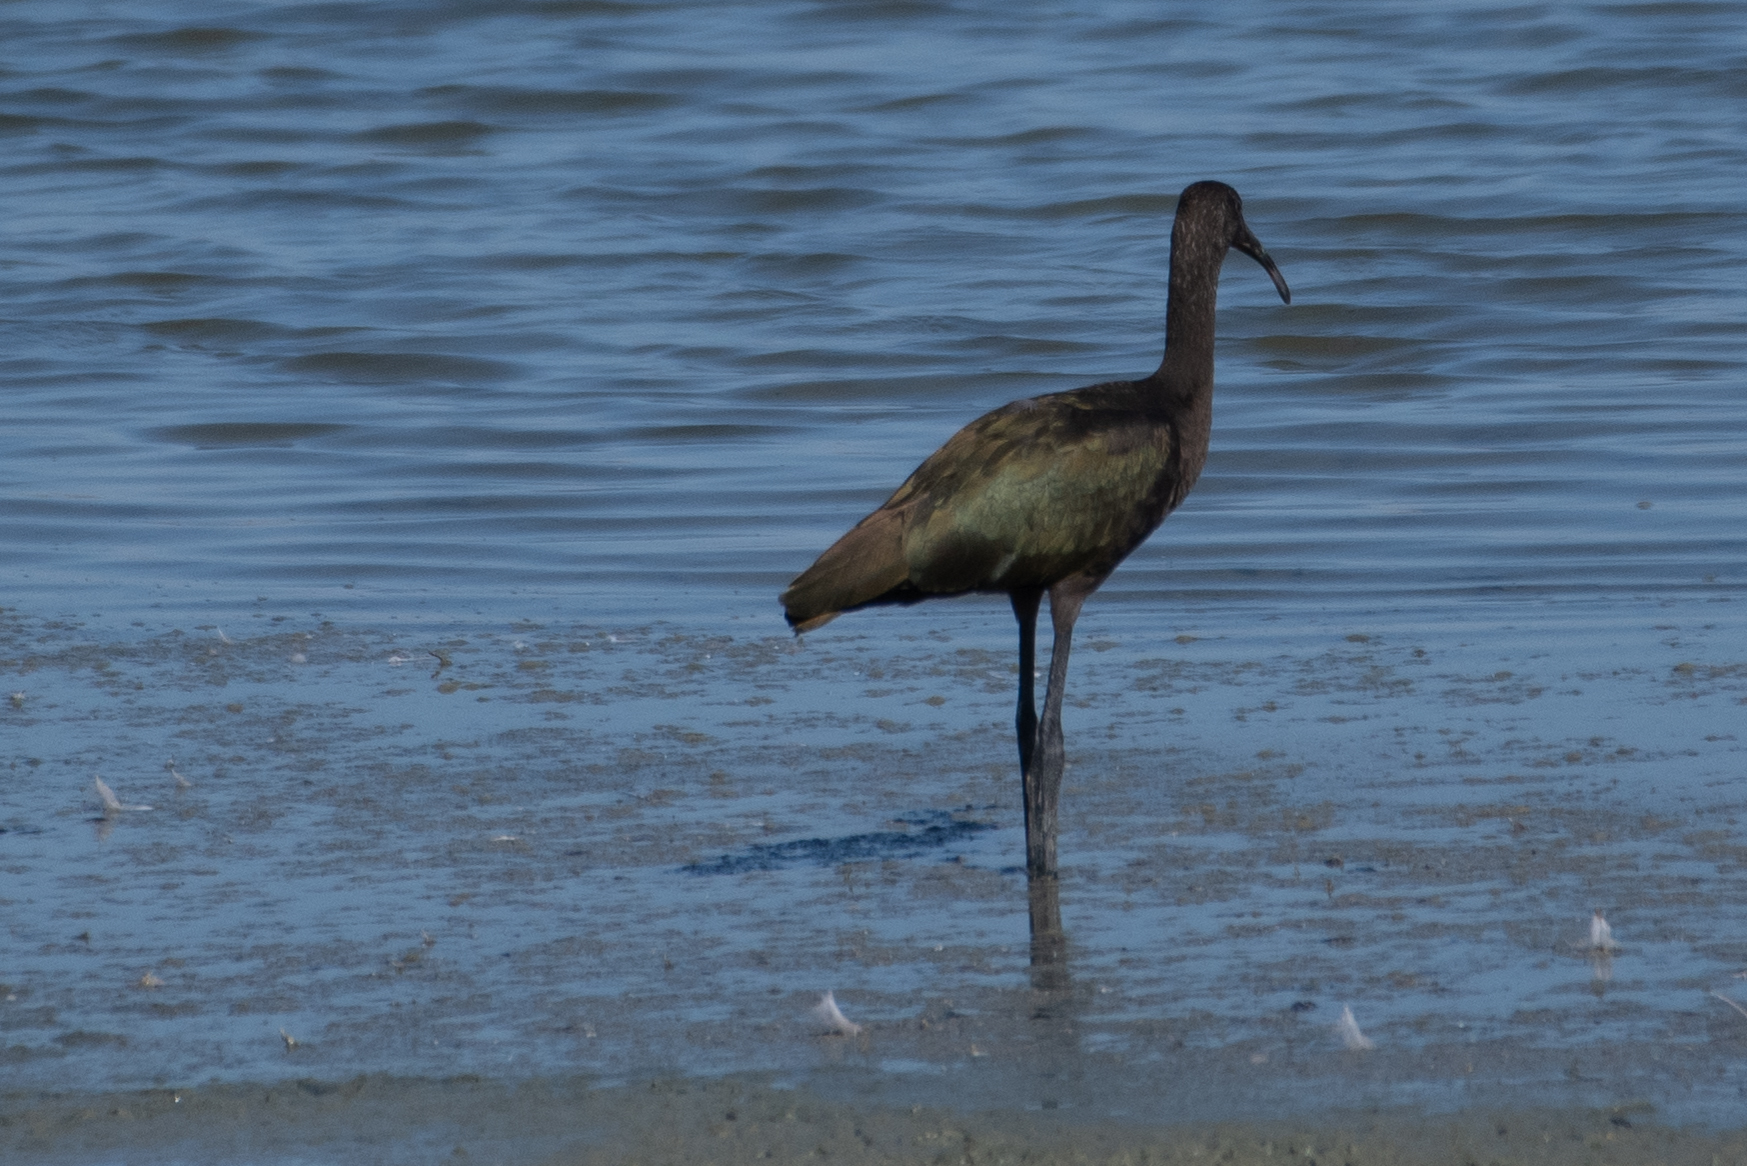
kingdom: Animalia
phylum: Chordata
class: Aves
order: Pelecaniformes
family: Threskiornithidae
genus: Plegadis
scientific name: Plegadis chihi
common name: White-faced ibis
